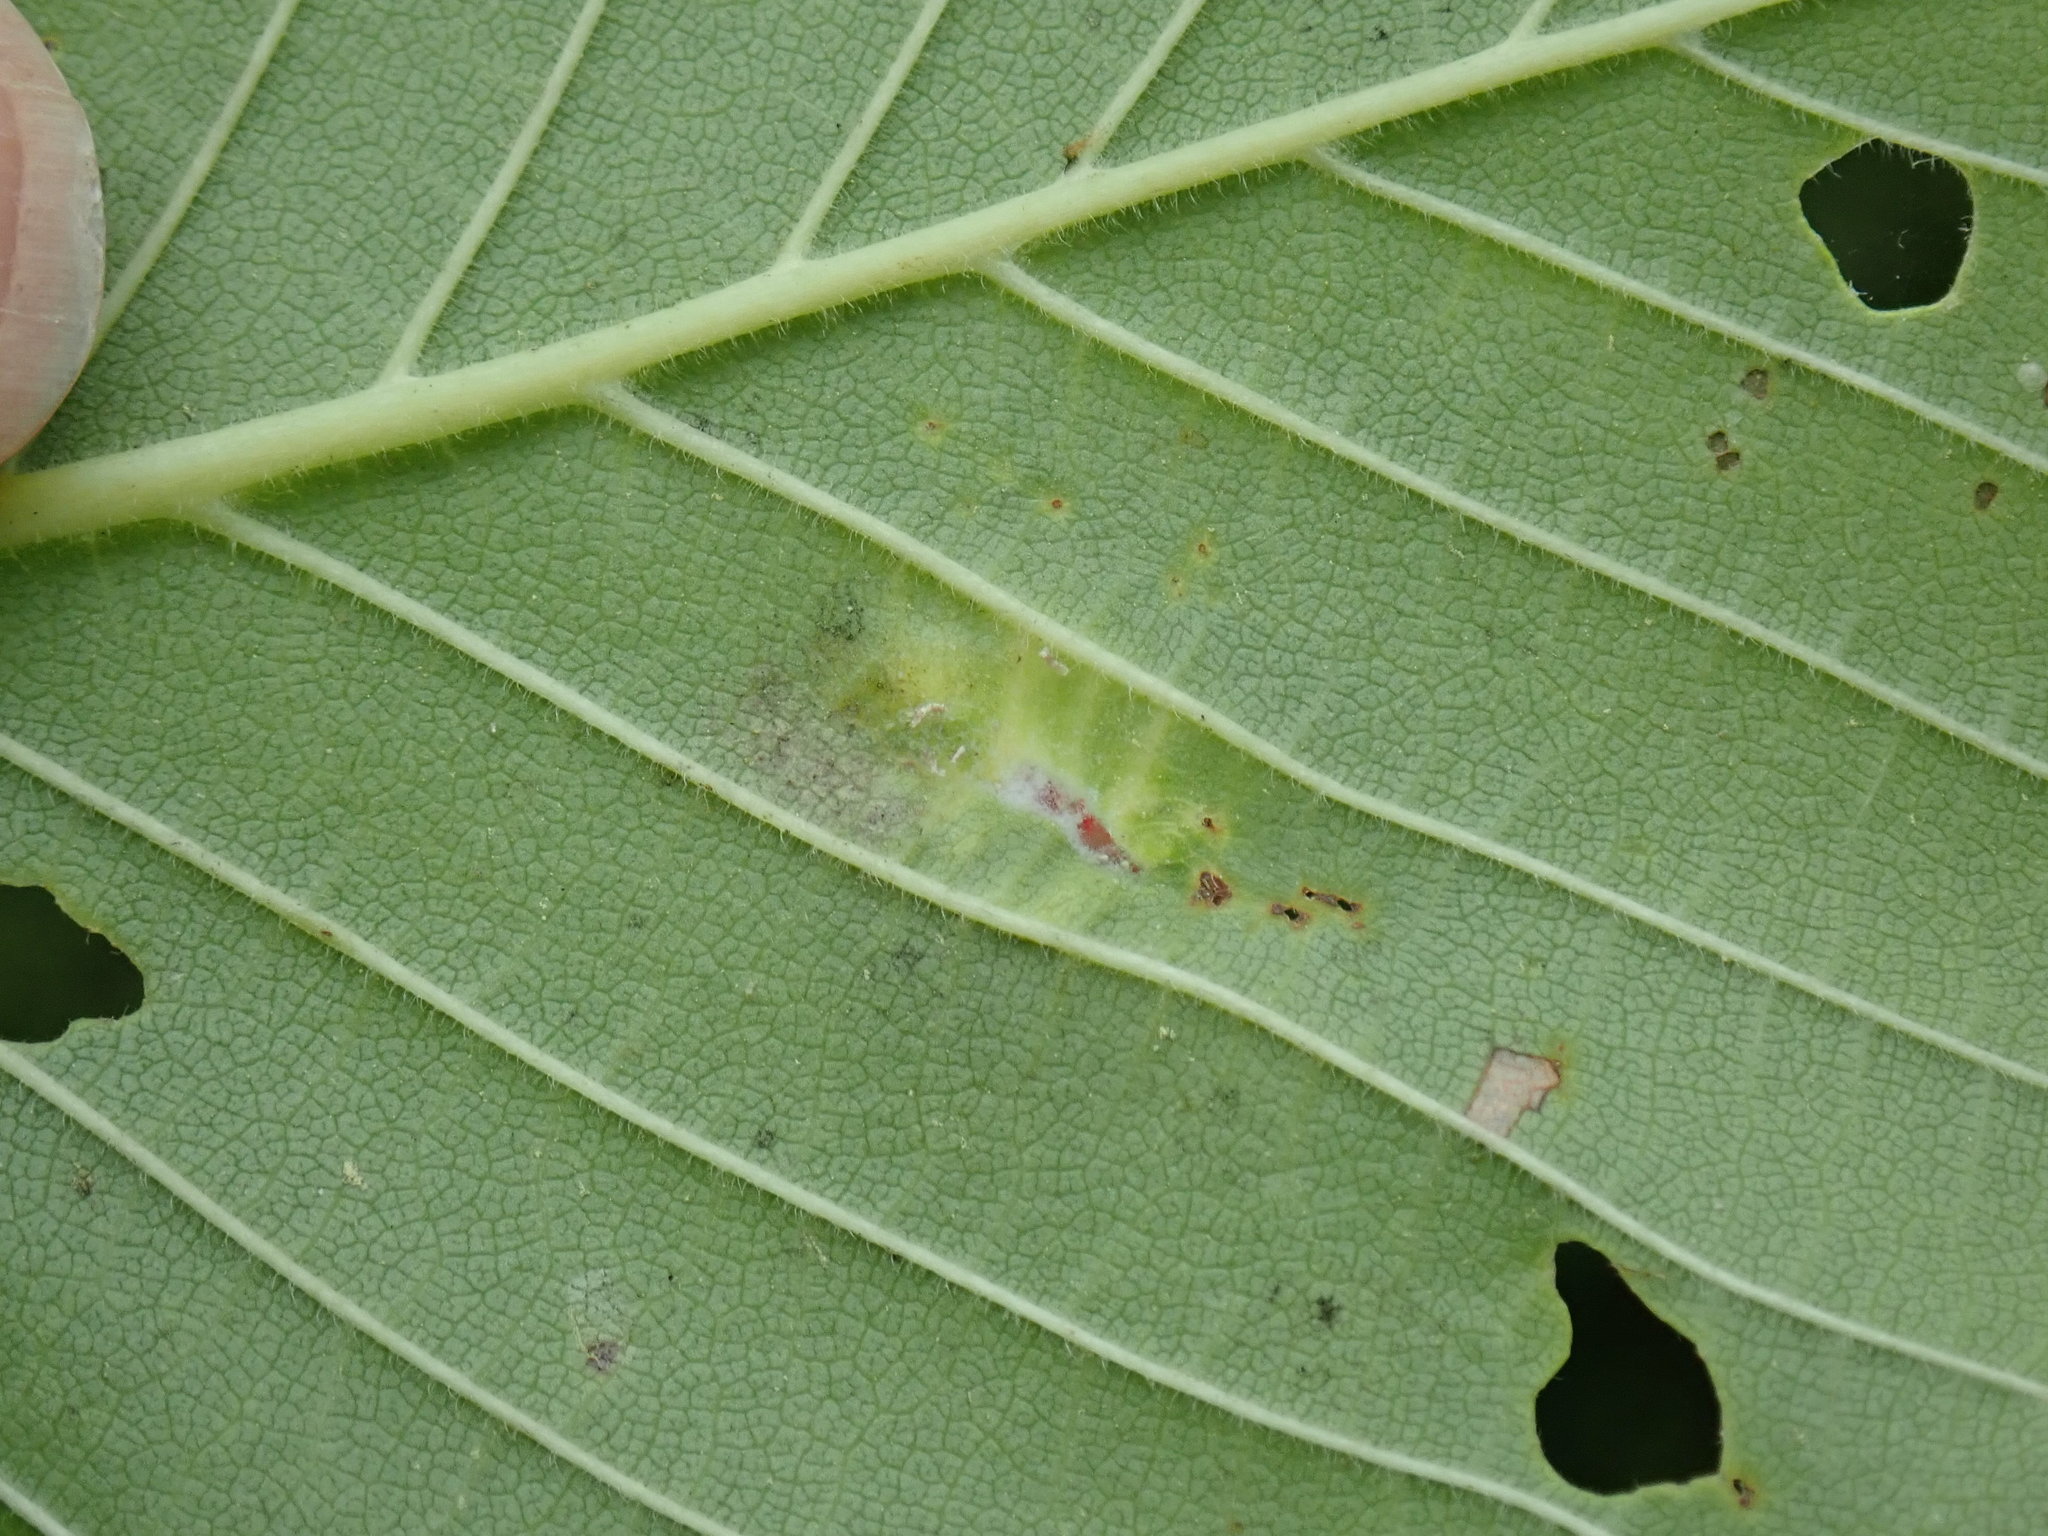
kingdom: Animalia
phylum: Arthropoda
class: Insecta
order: Hemiptera
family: Aphididae
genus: Colopha
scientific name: Colopha ulmicola
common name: Elm cockscombgall aphid
